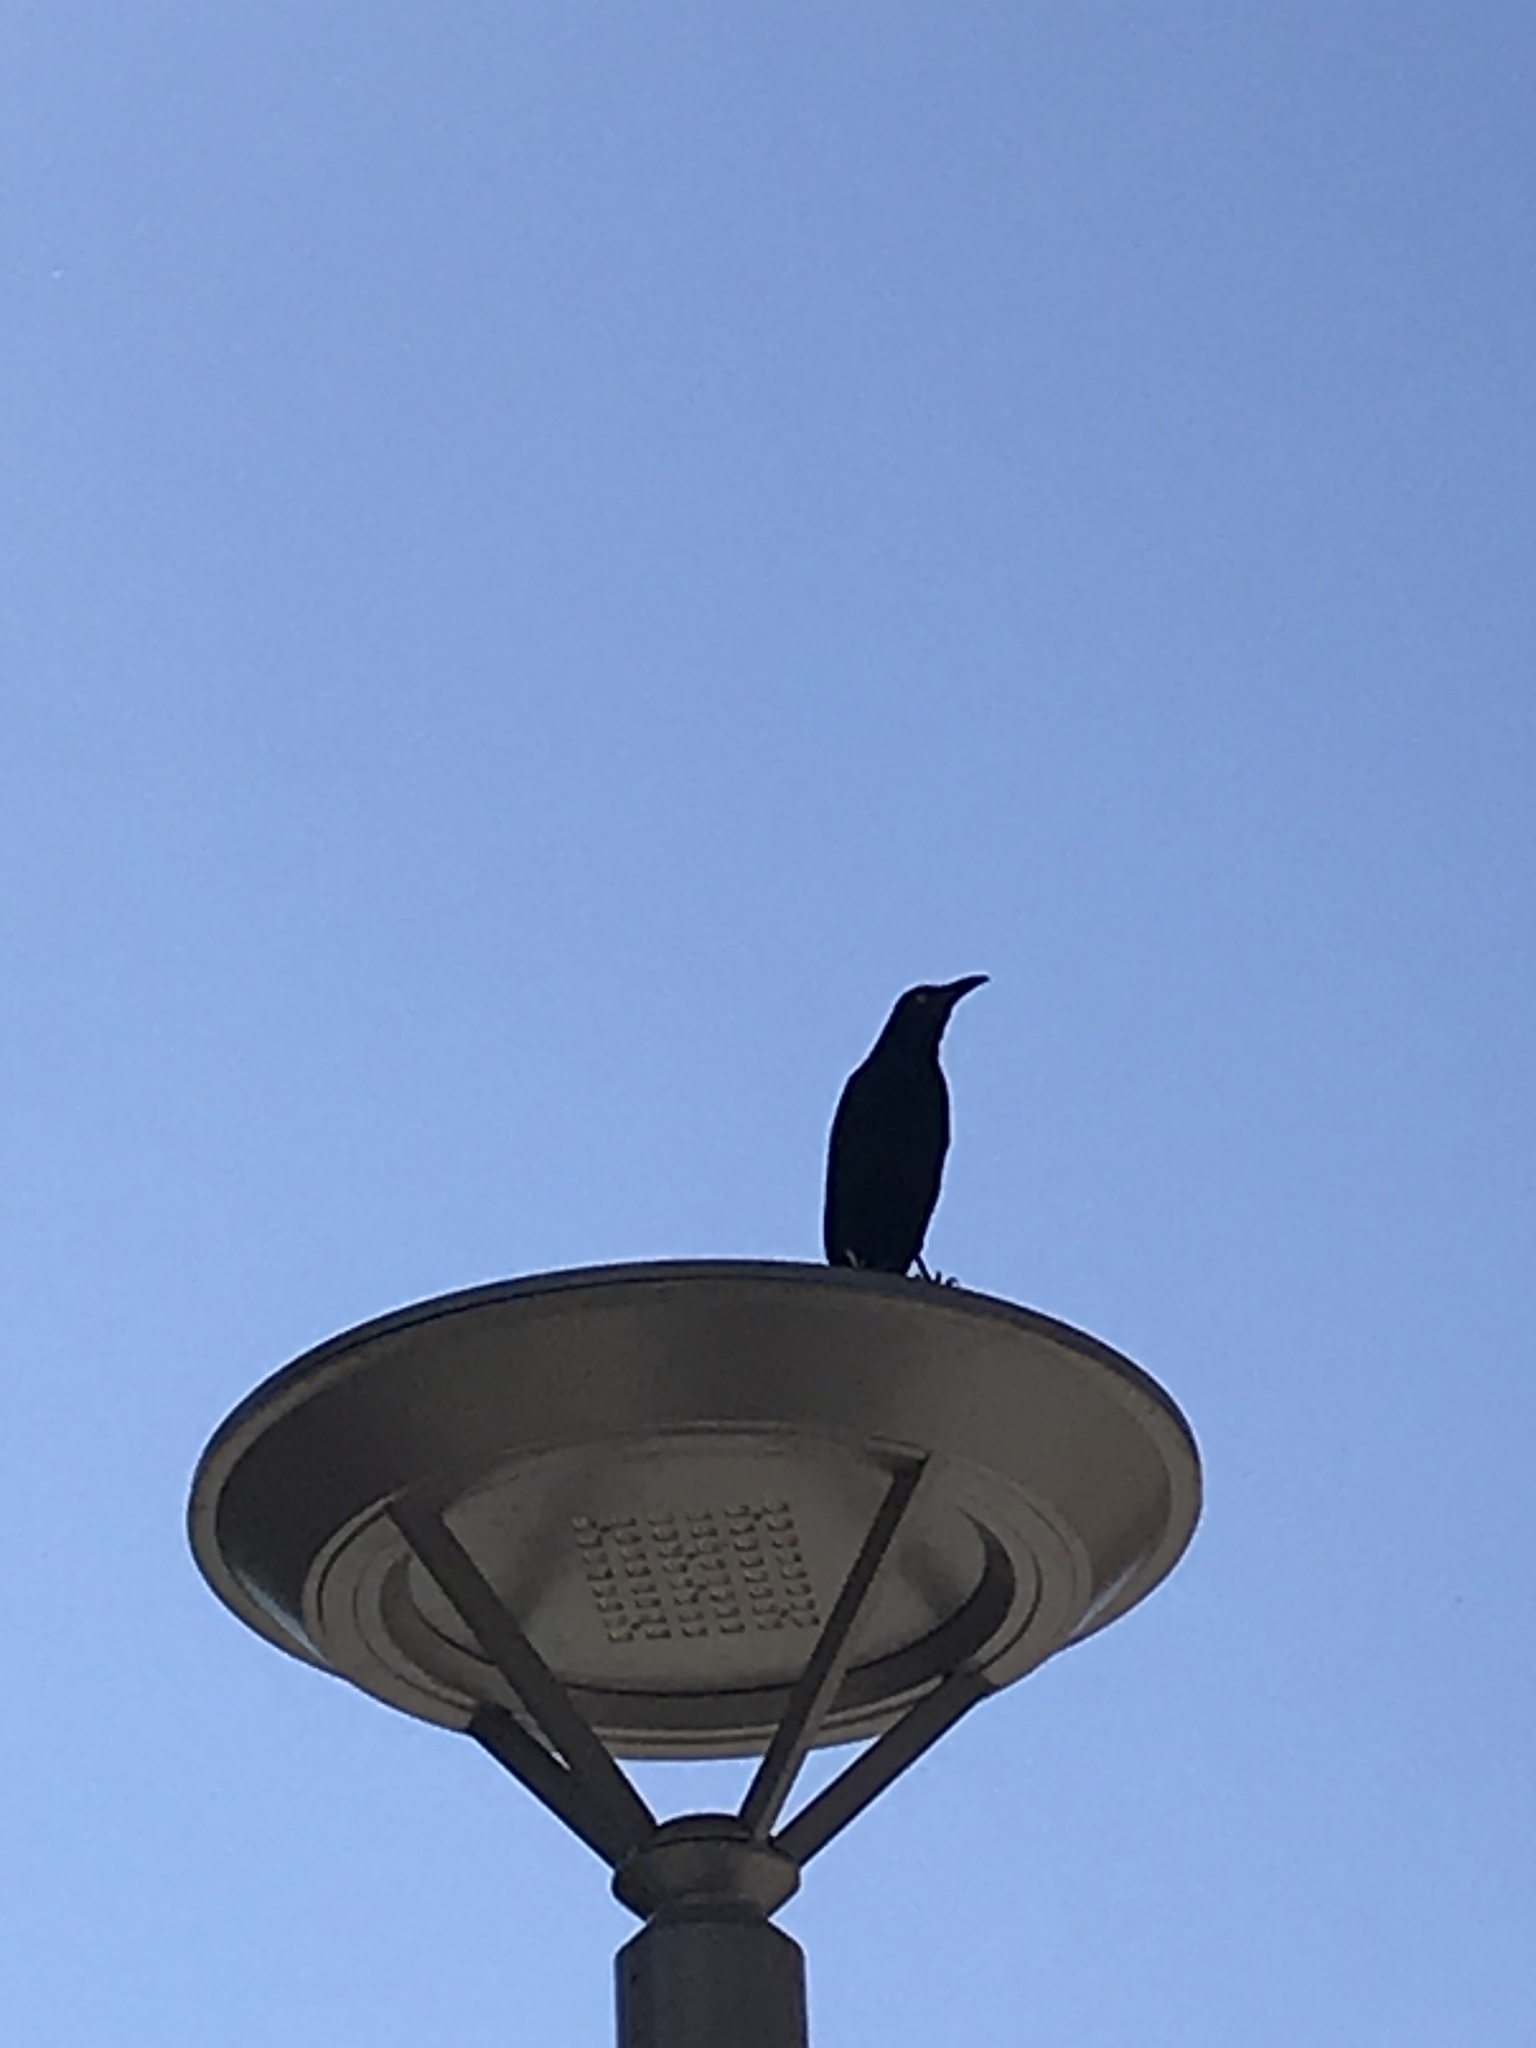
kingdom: Animalia
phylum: Chordata
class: Aves
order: Passeriformes
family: Icteridae
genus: Quiscalus
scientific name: Quiscalus mexicanus
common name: Great-tailed grackle
